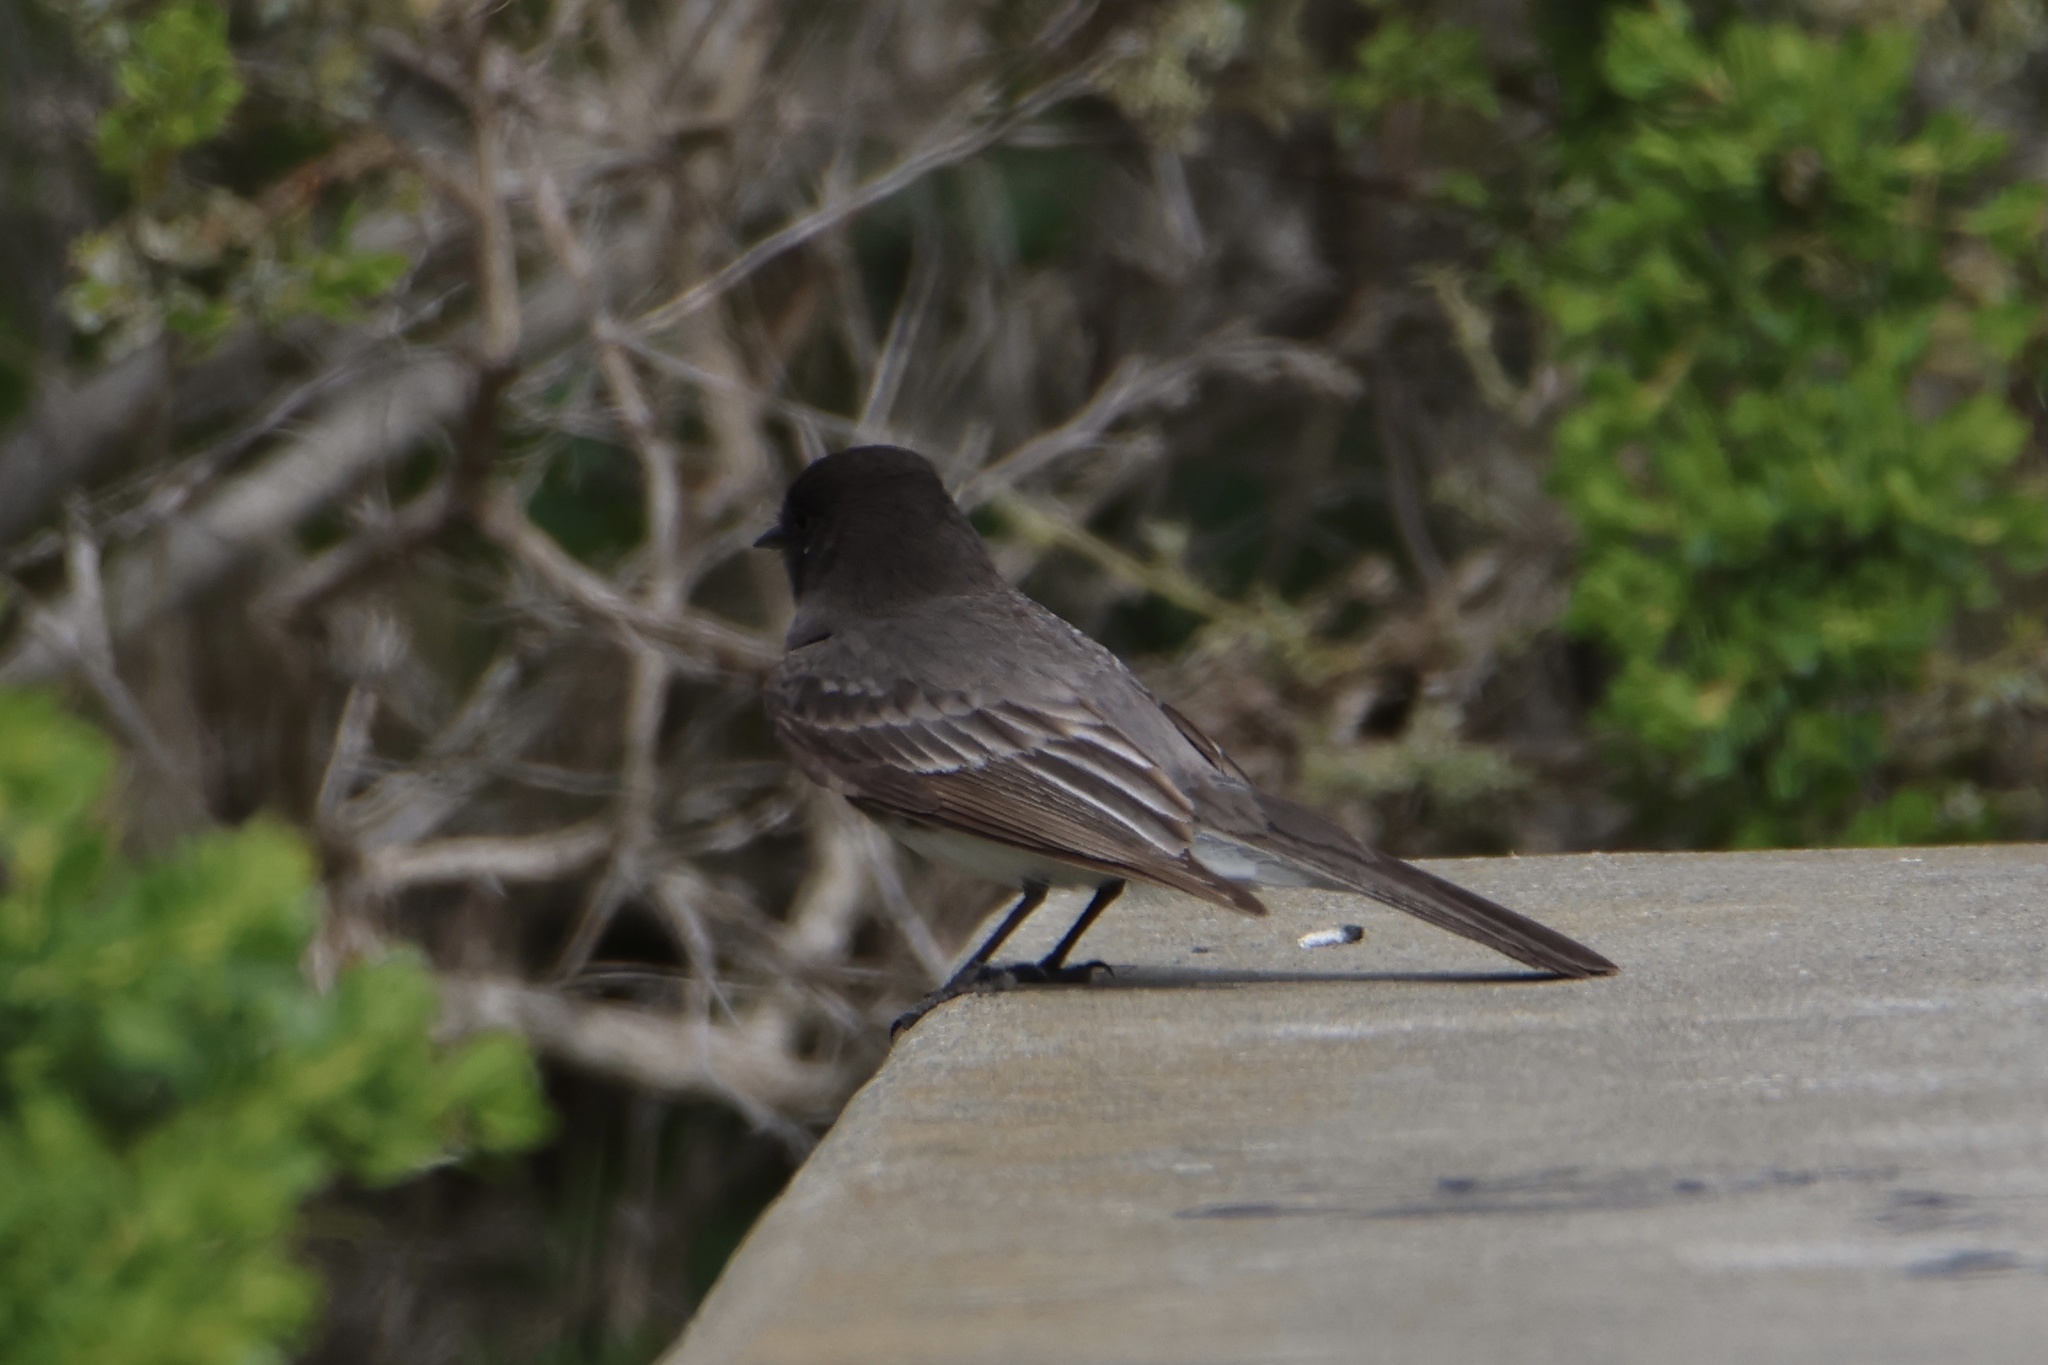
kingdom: Animalia
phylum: Chordata
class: Aves
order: Passeriformes
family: Tyrannidae
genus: Sayornis
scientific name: Sayornis nigricans
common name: Black phoebe
